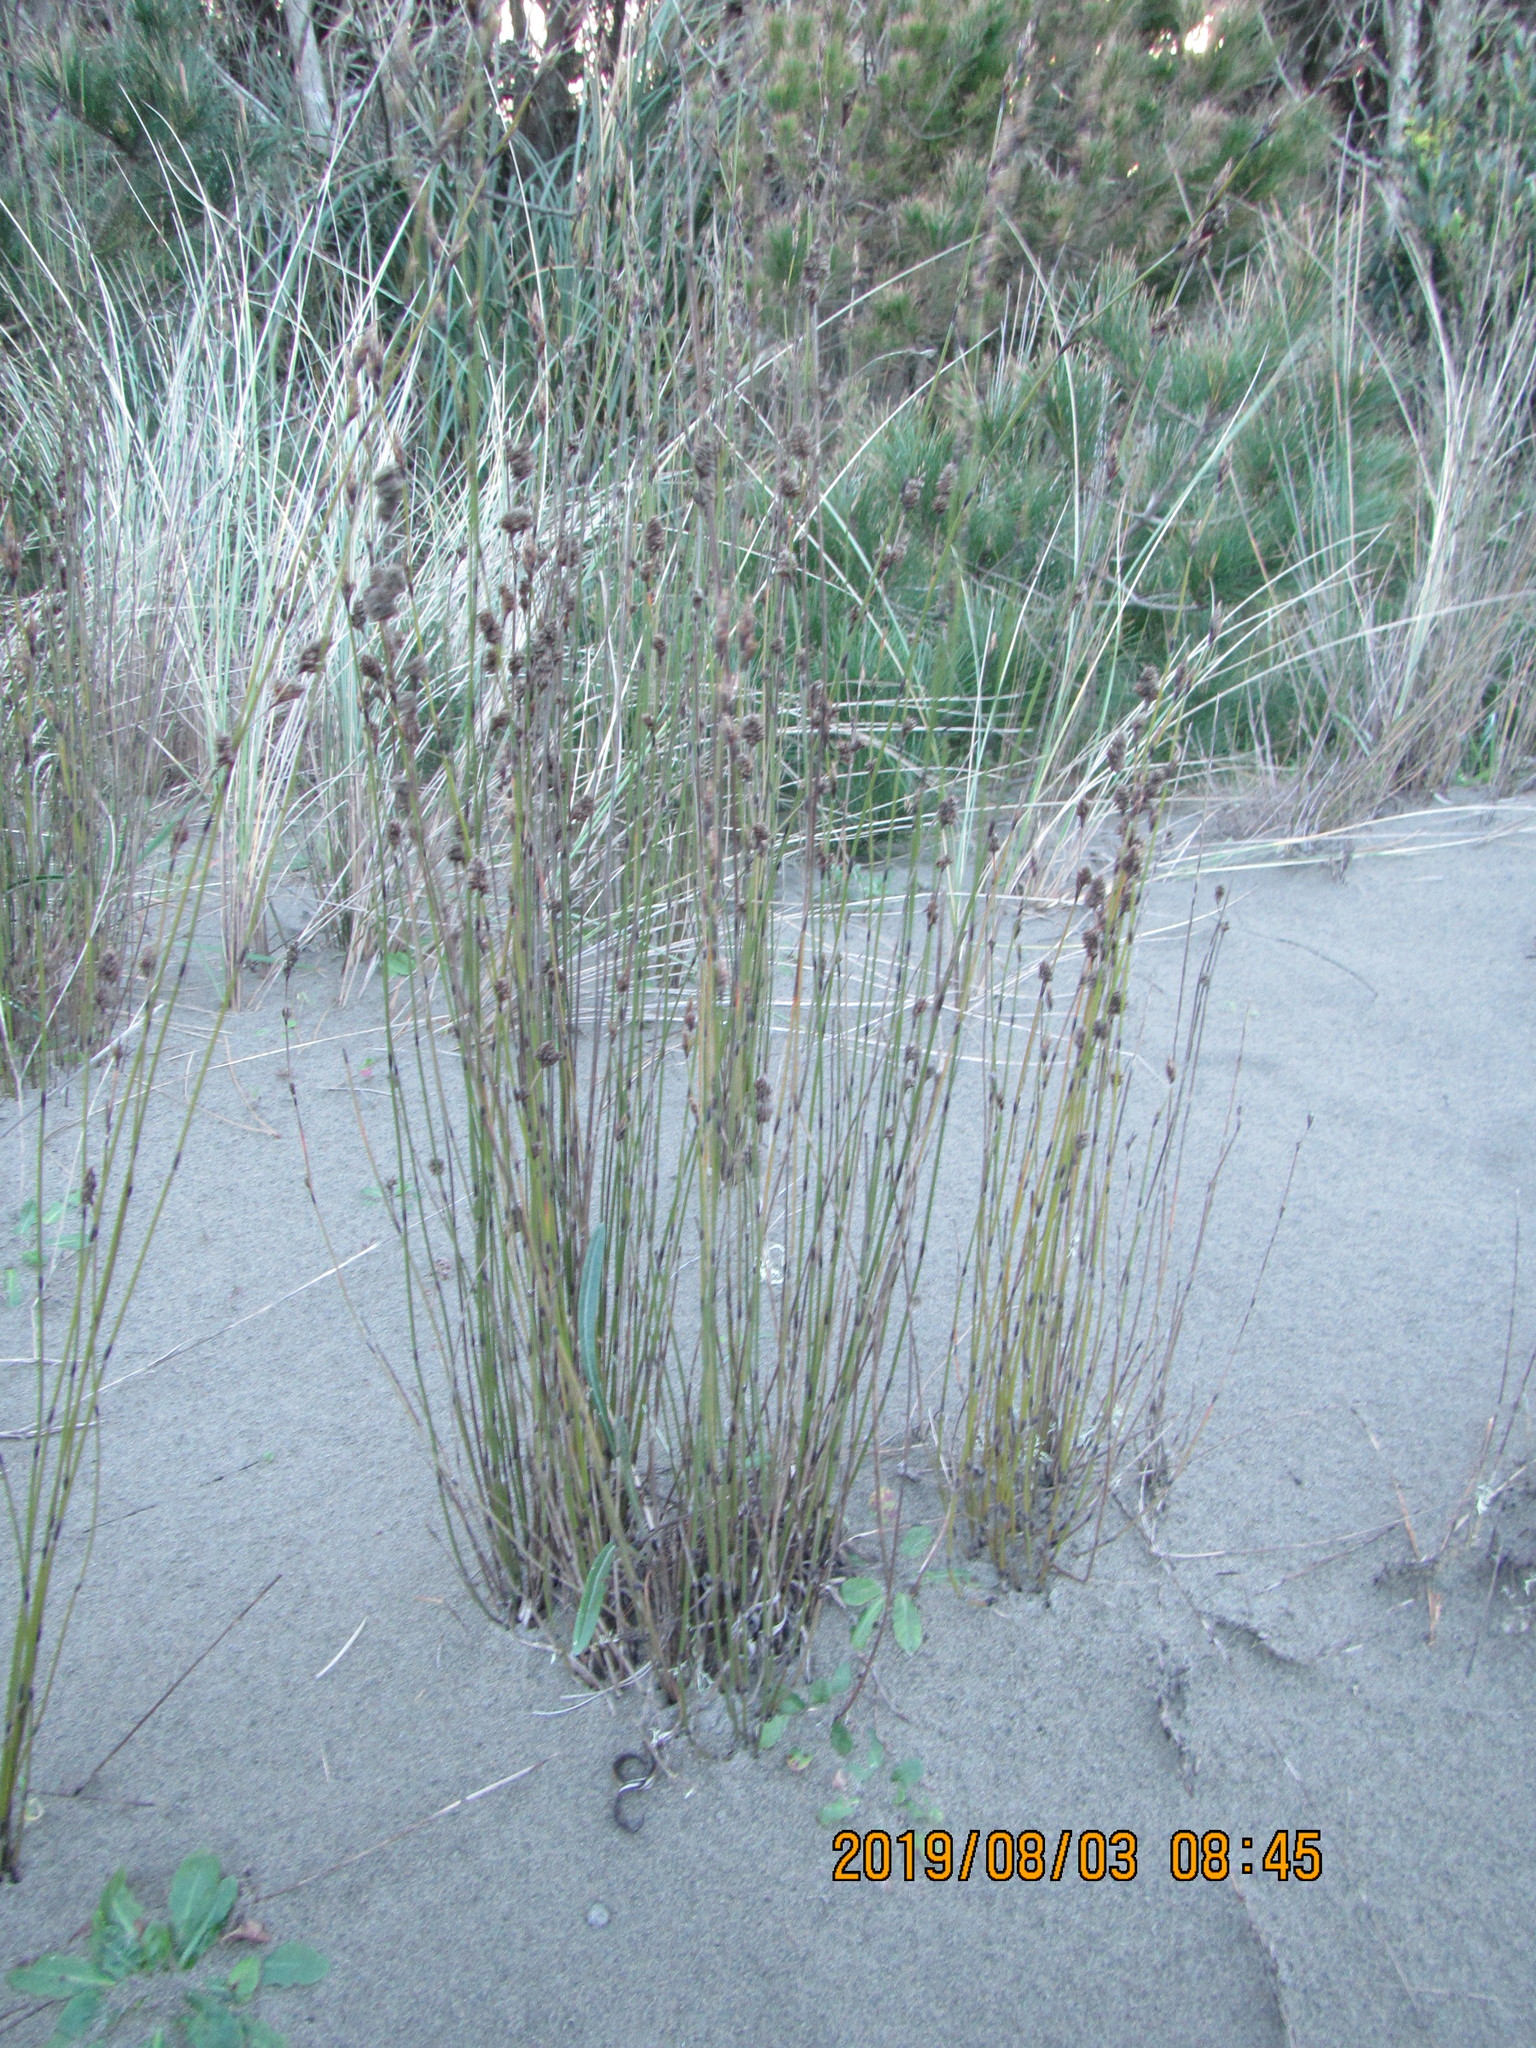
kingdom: Plantae
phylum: Tracheophyta
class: Liliopsida
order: Poales
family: Restionaceae
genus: Apodasmia
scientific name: Apodasmia similis
